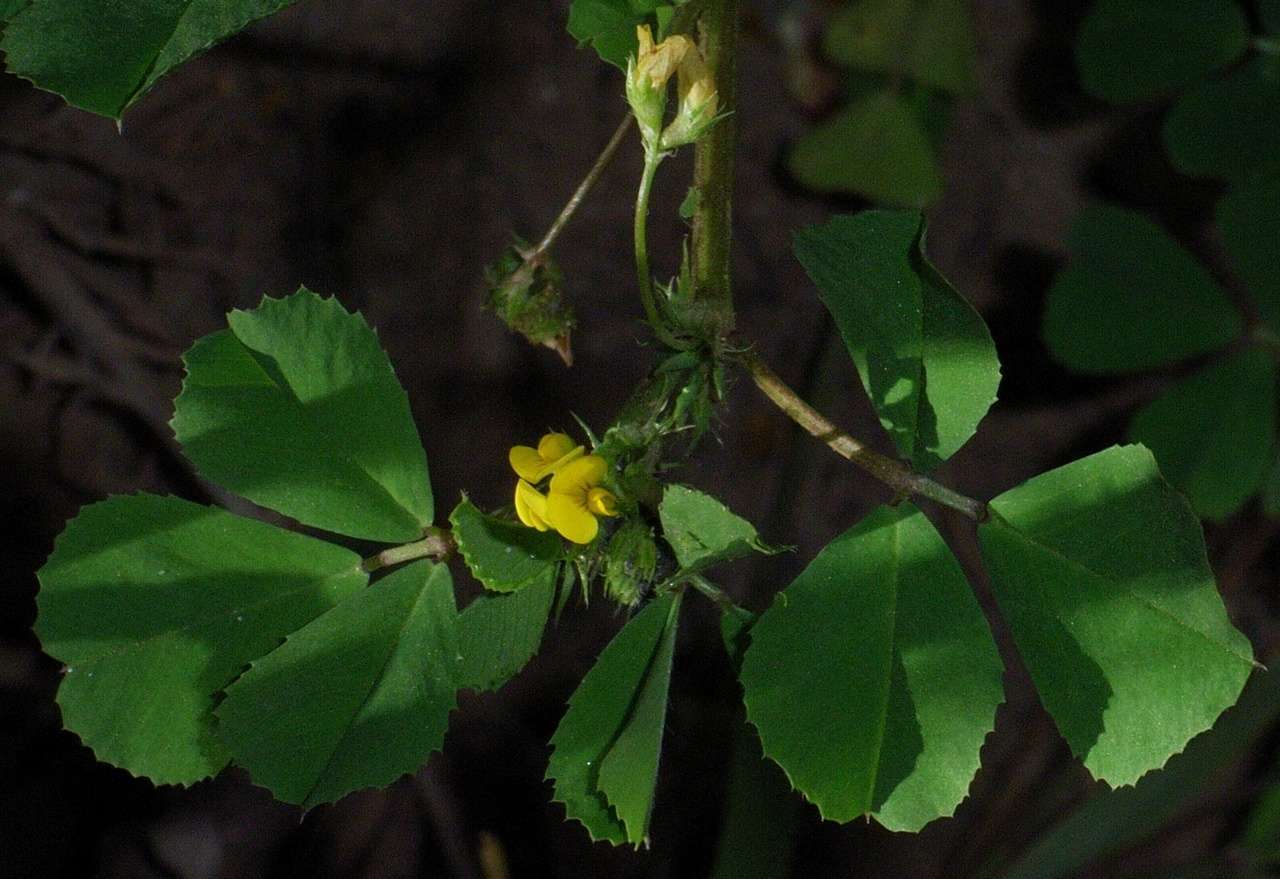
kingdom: Plantae
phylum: Tracheophyta
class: Magnoliopsida
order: Fabales
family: Fabaceae
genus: Medicago
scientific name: Medicago polymorpha
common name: Burclover
